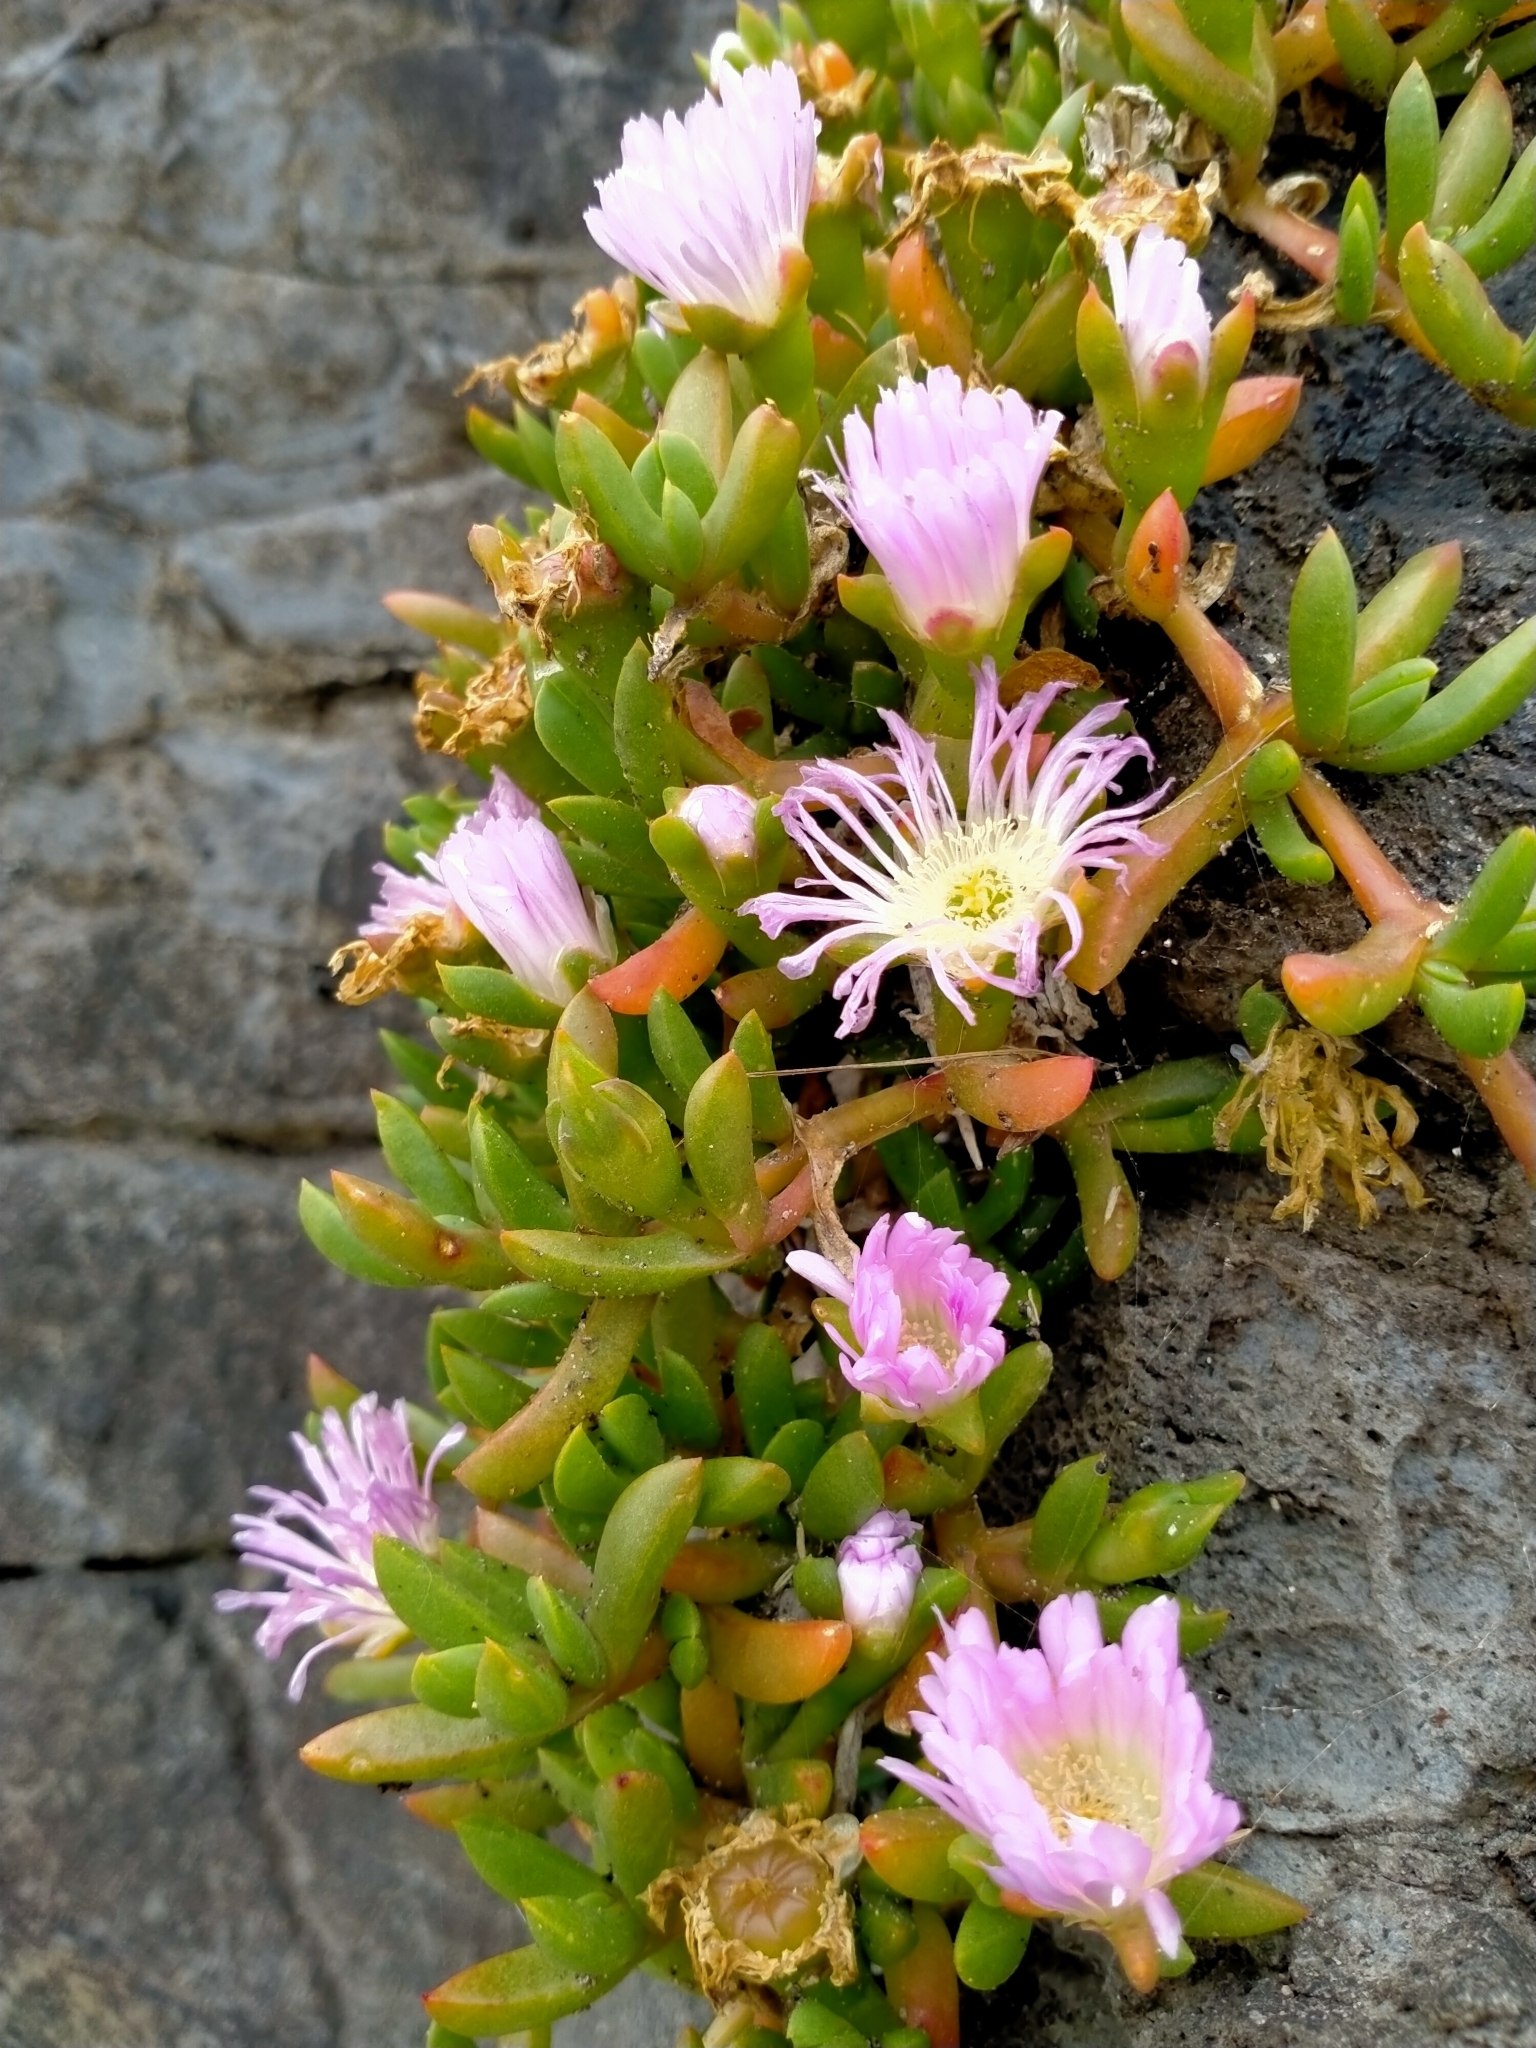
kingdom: Plantae
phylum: Tracheophyta
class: Magnoliopsida
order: Caryophyllales
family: Aizoaceae
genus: Disphyma
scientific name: Disphyma australe
